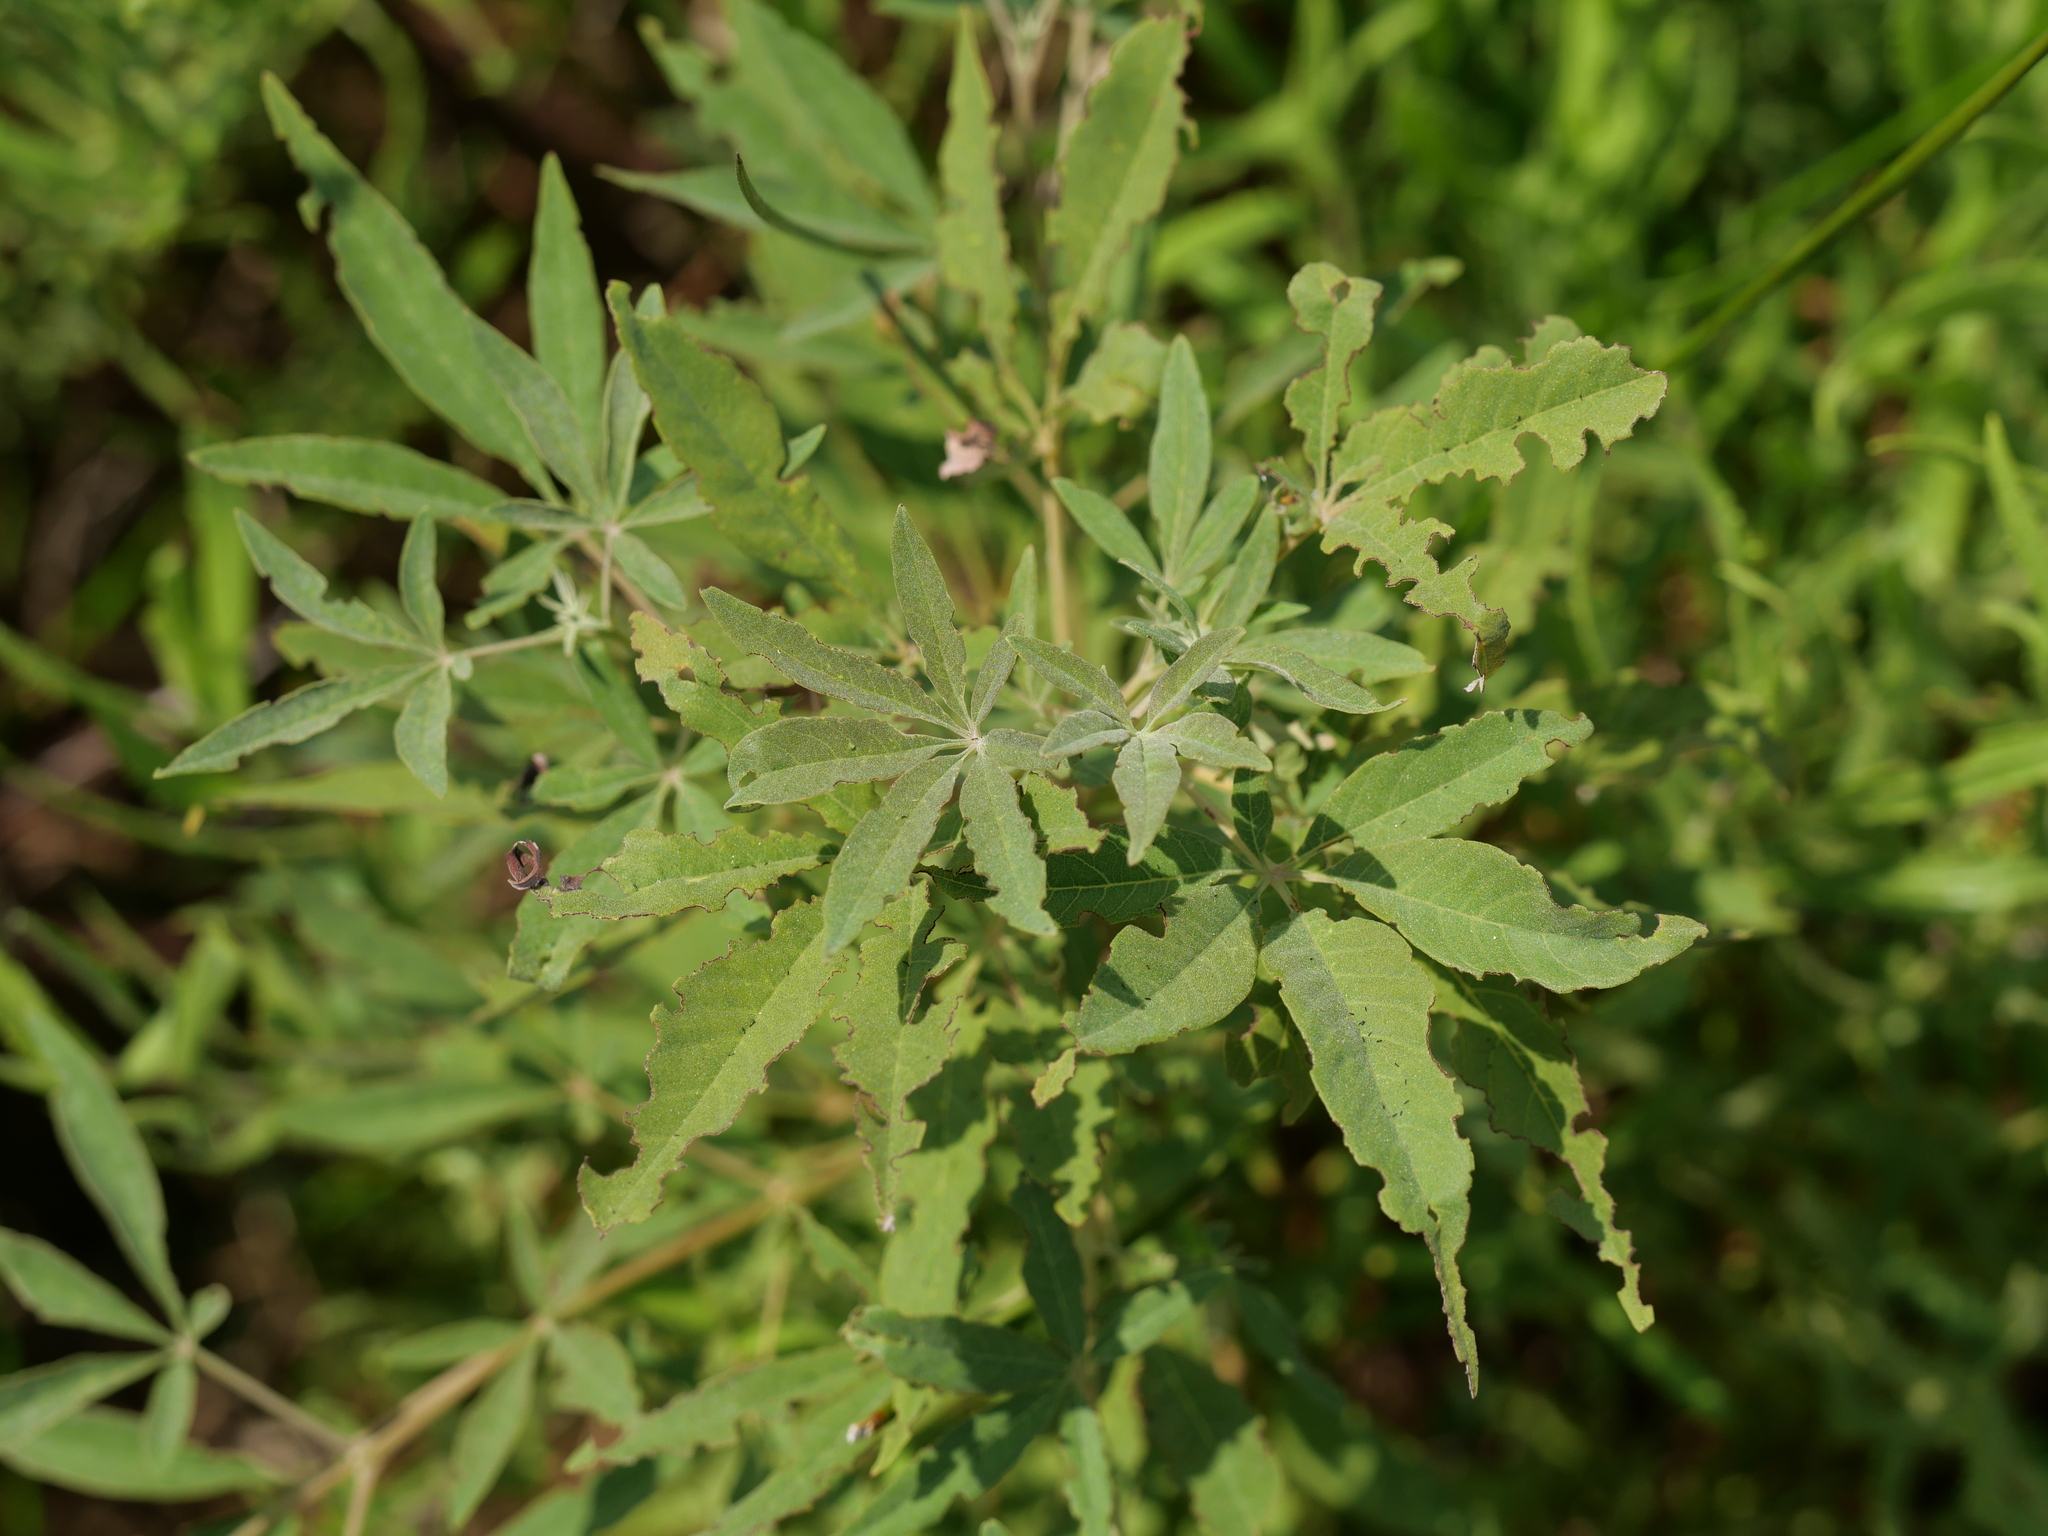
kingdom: Plantae
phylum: Tracheophyta
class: Magnoliopsida
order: Lamiales
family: Lamiaceae
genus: Vitex
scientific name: Vitex agnus-castus
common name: Chasteberry
